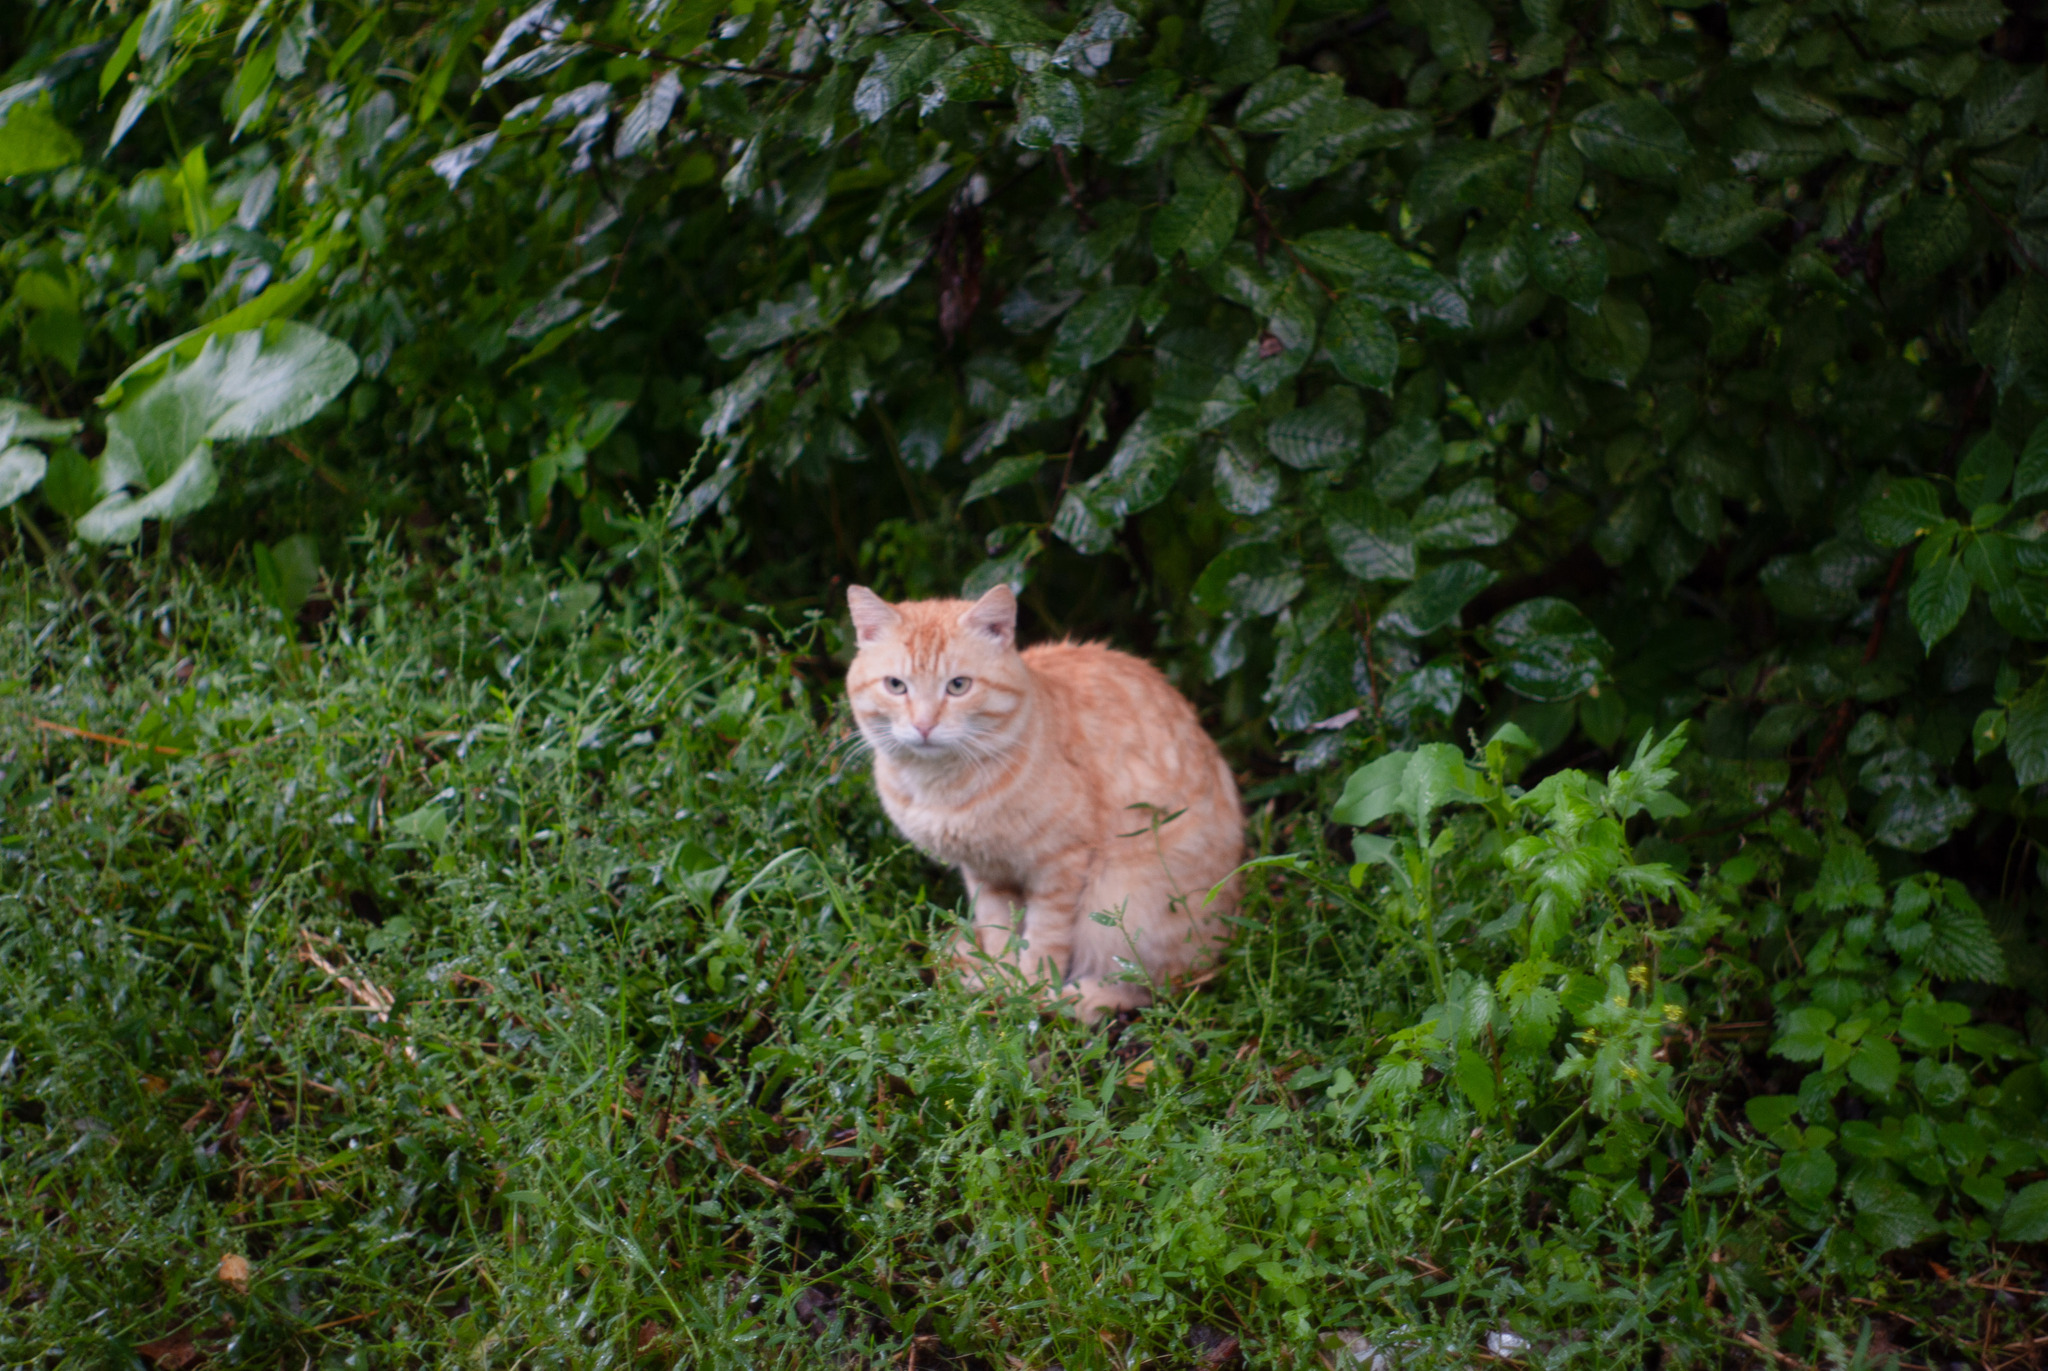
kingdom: Animalia
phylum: Chordata
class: Mammalia
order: Carnivora
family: Felidae
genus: Felis
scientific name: Felis catus
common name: Domestic cat
